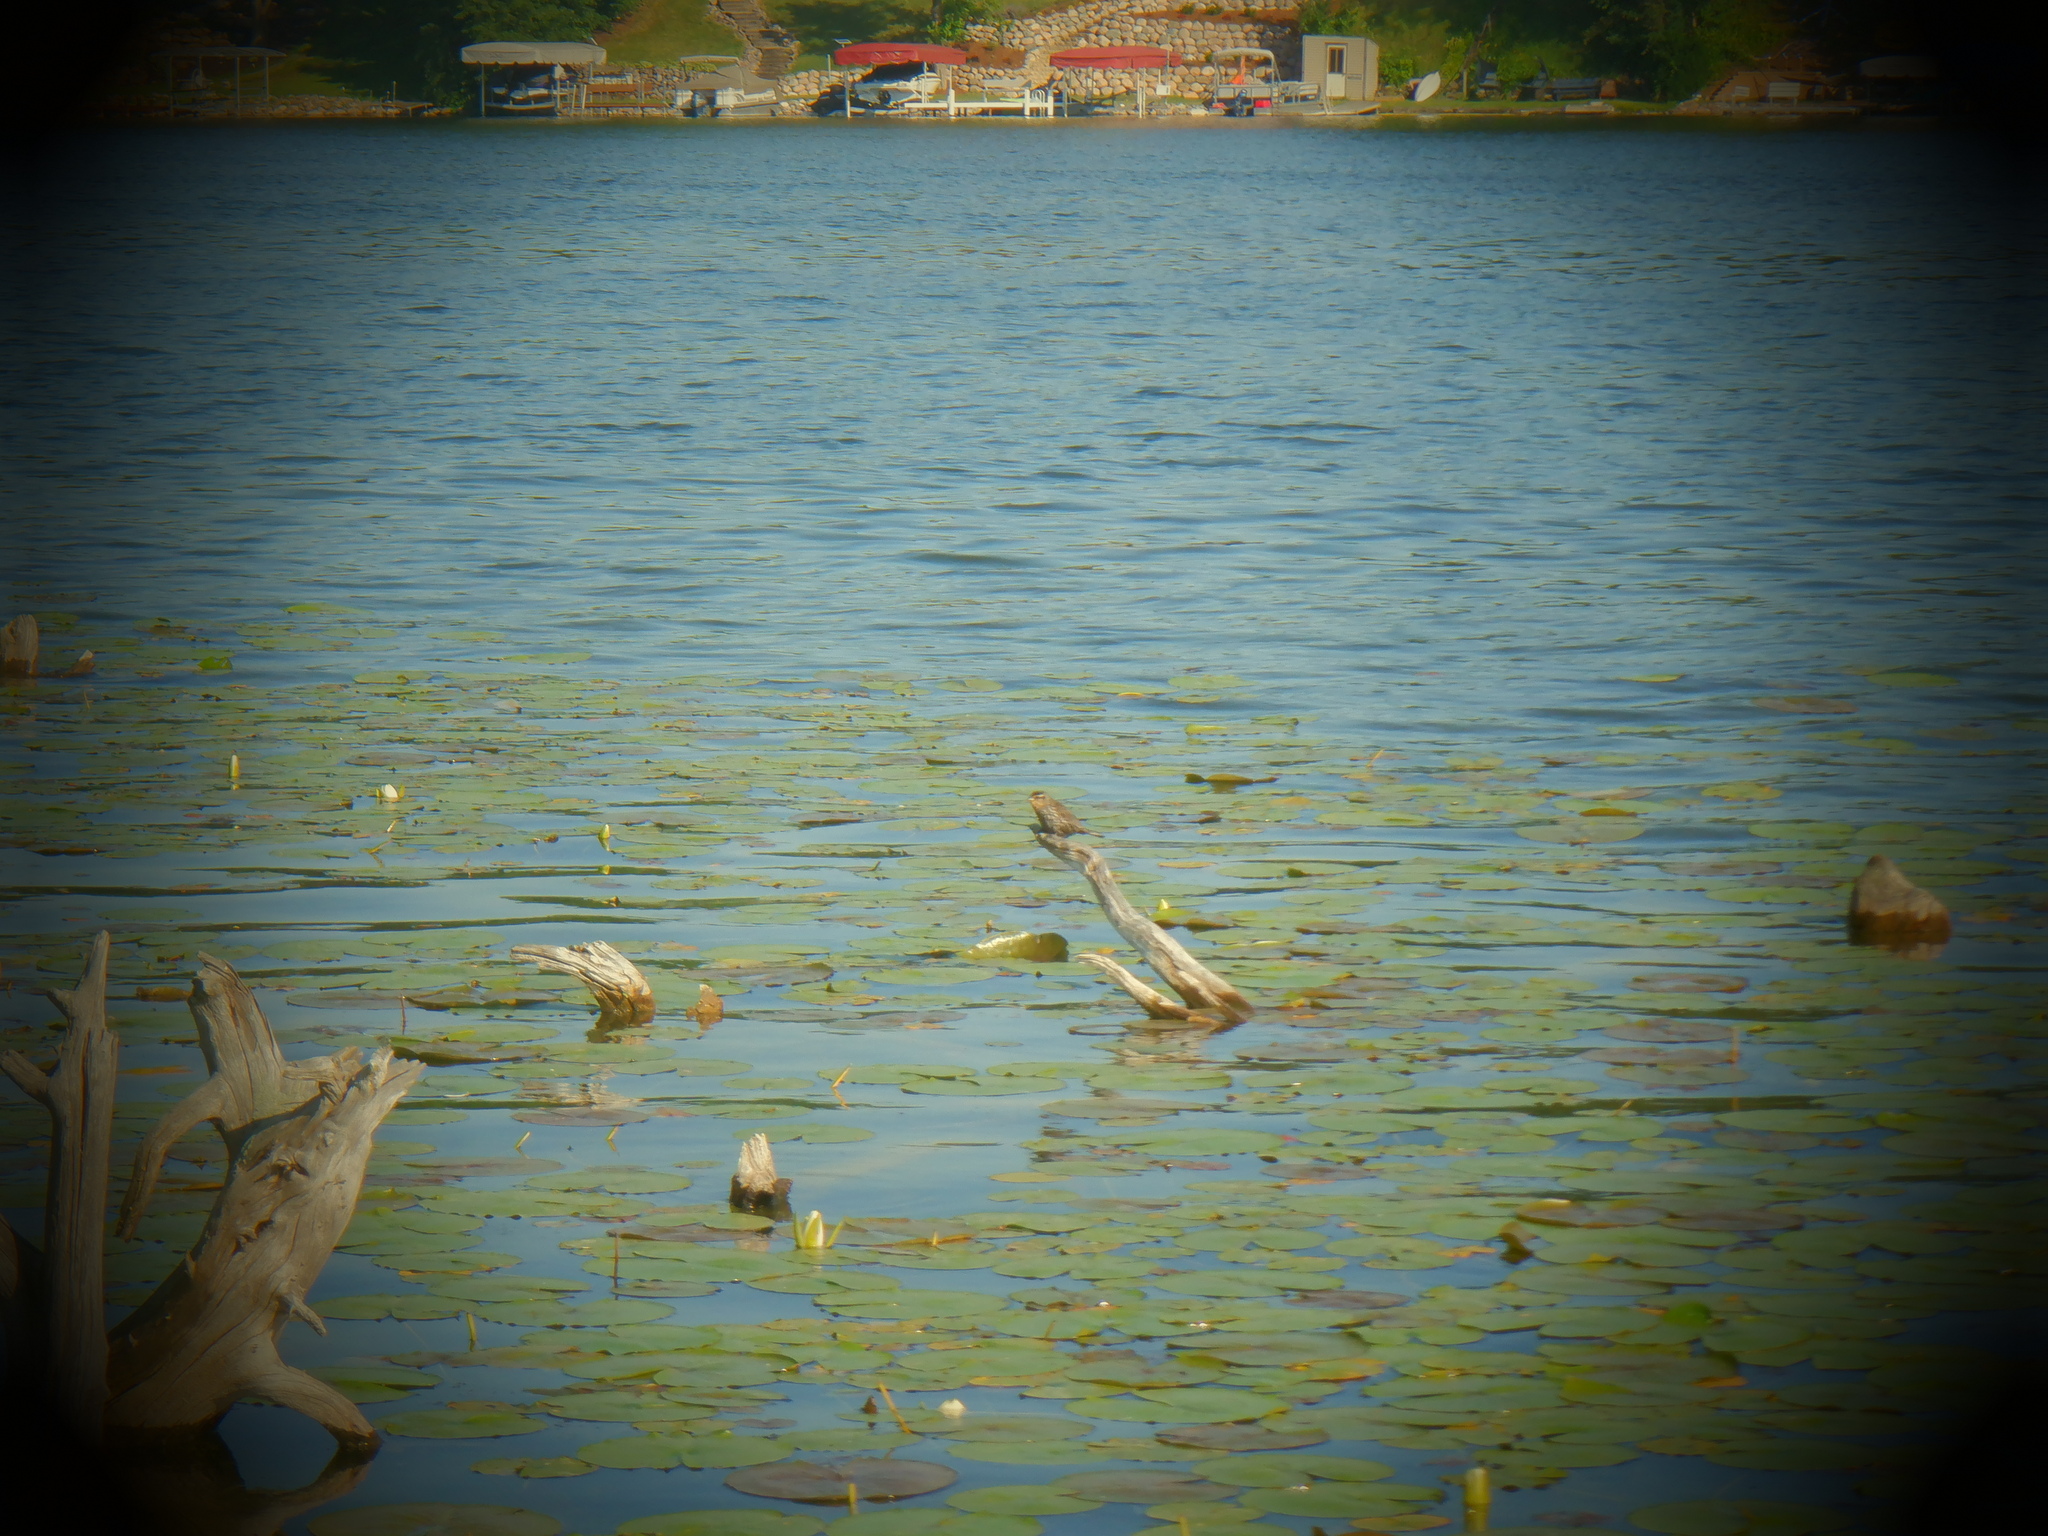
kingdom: Animalia
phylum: Chordata
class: Aves
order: Passeriformes
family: Icteridae
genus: Agelaius
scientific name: Agelaius phoeniceus
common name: Red-winged blackbird
